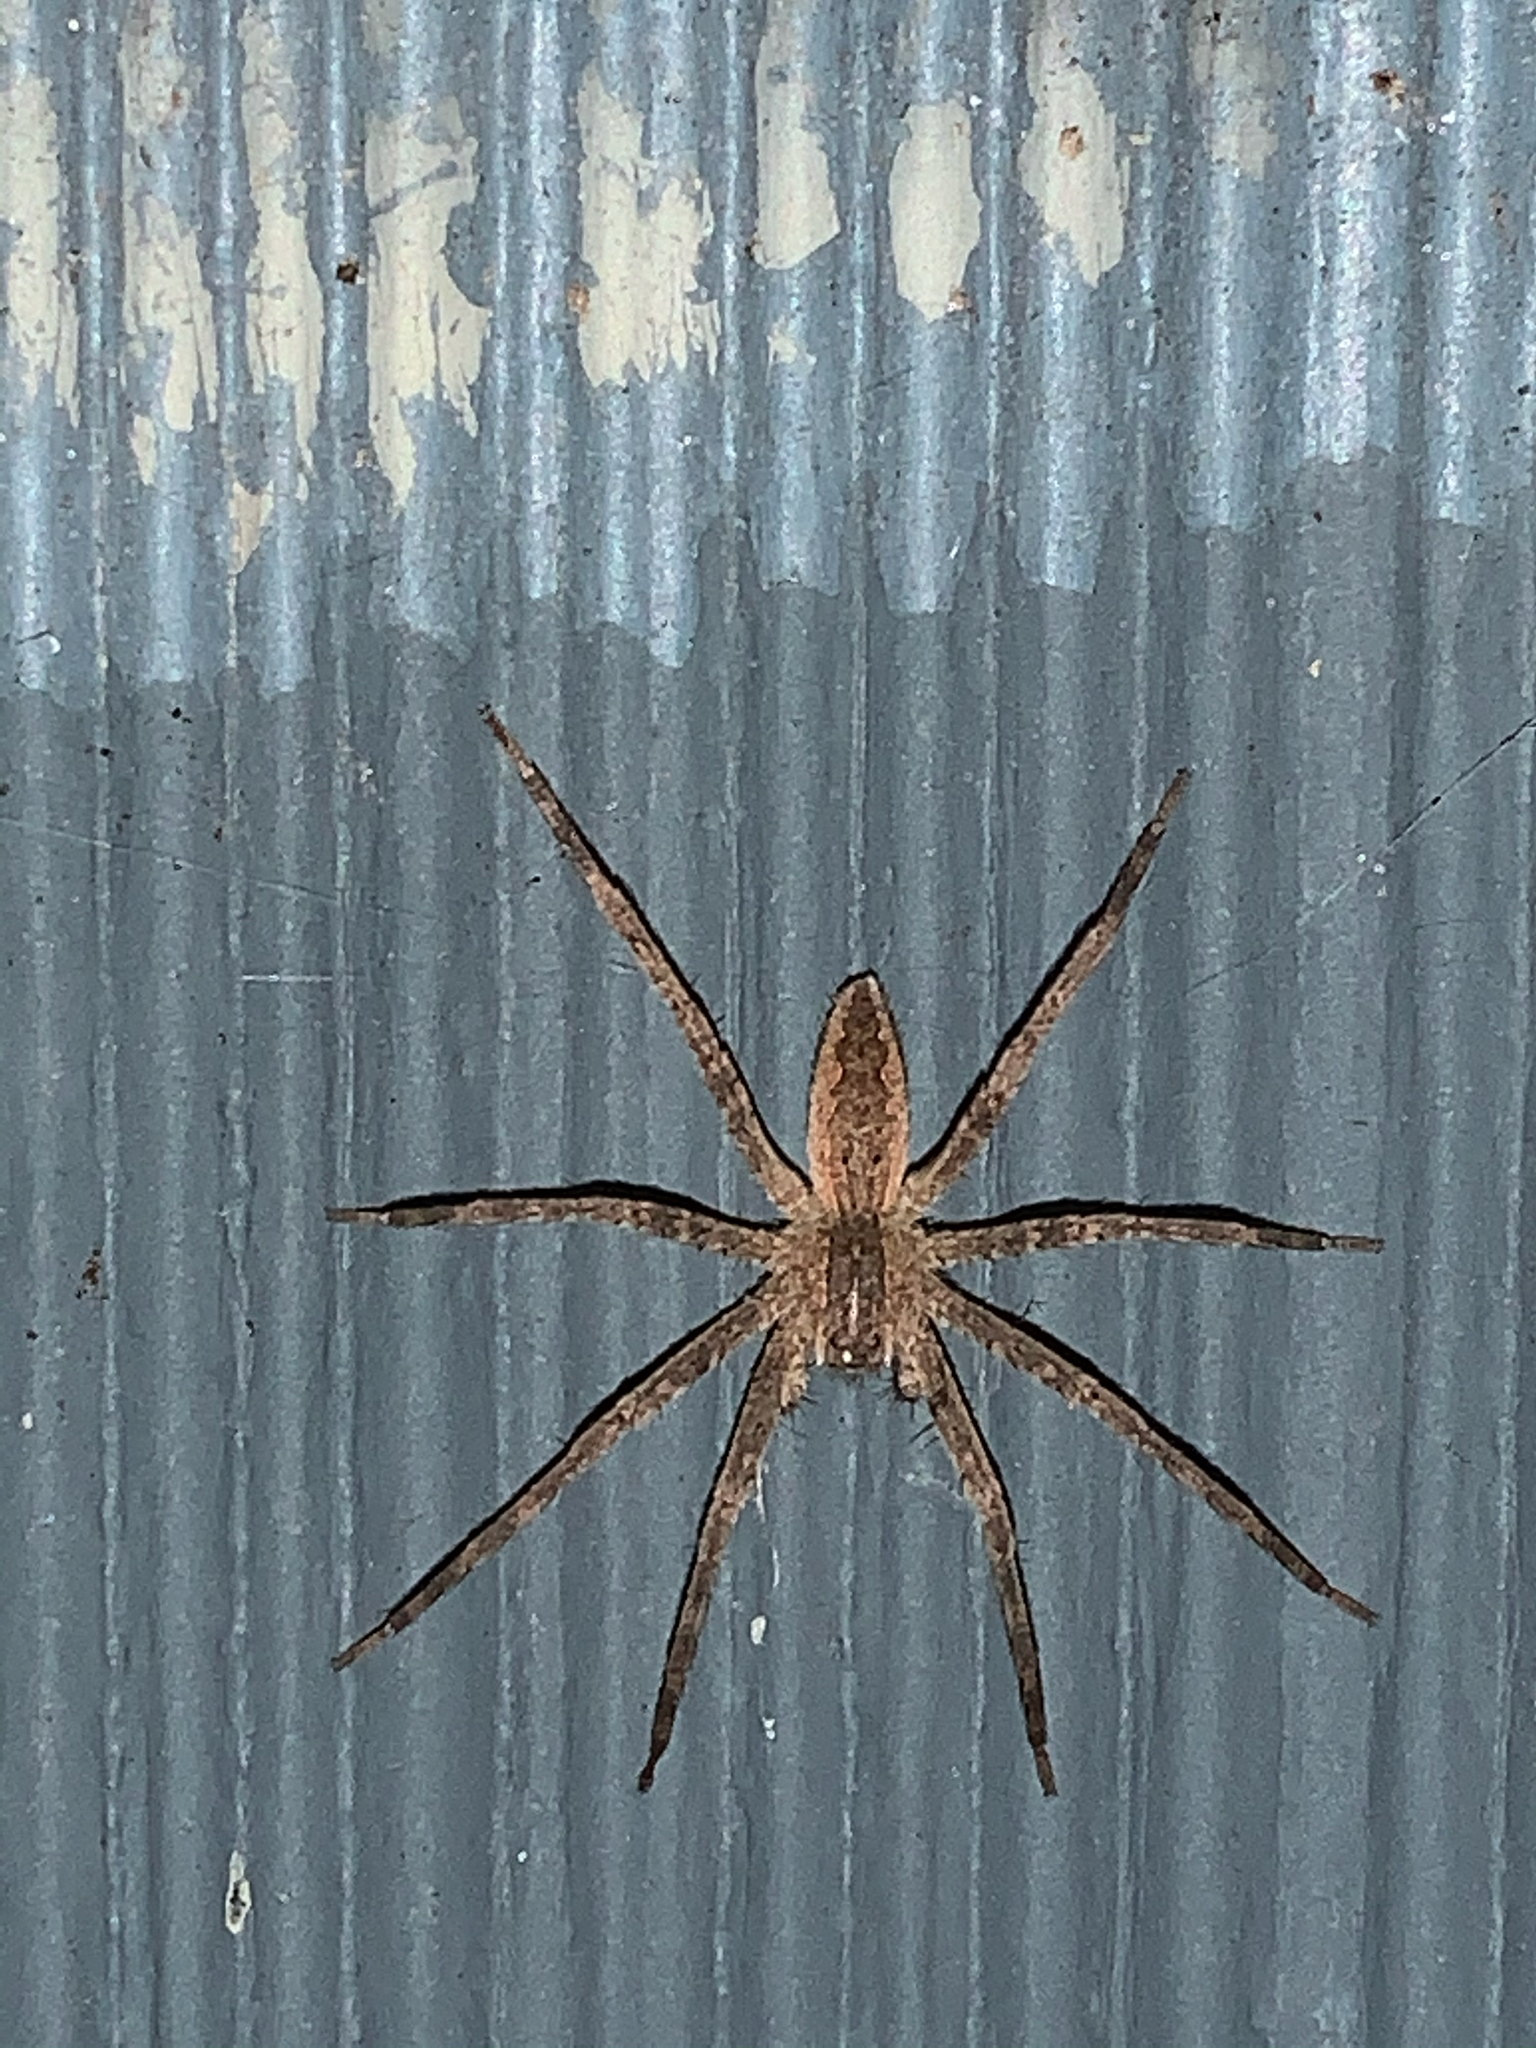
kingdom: Animalia
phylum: Arthropoda
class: Arachnida
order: Araneae
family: Pisauridae
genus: Pisaurina
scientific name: Pisaurina mira
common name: American nursery web spider
